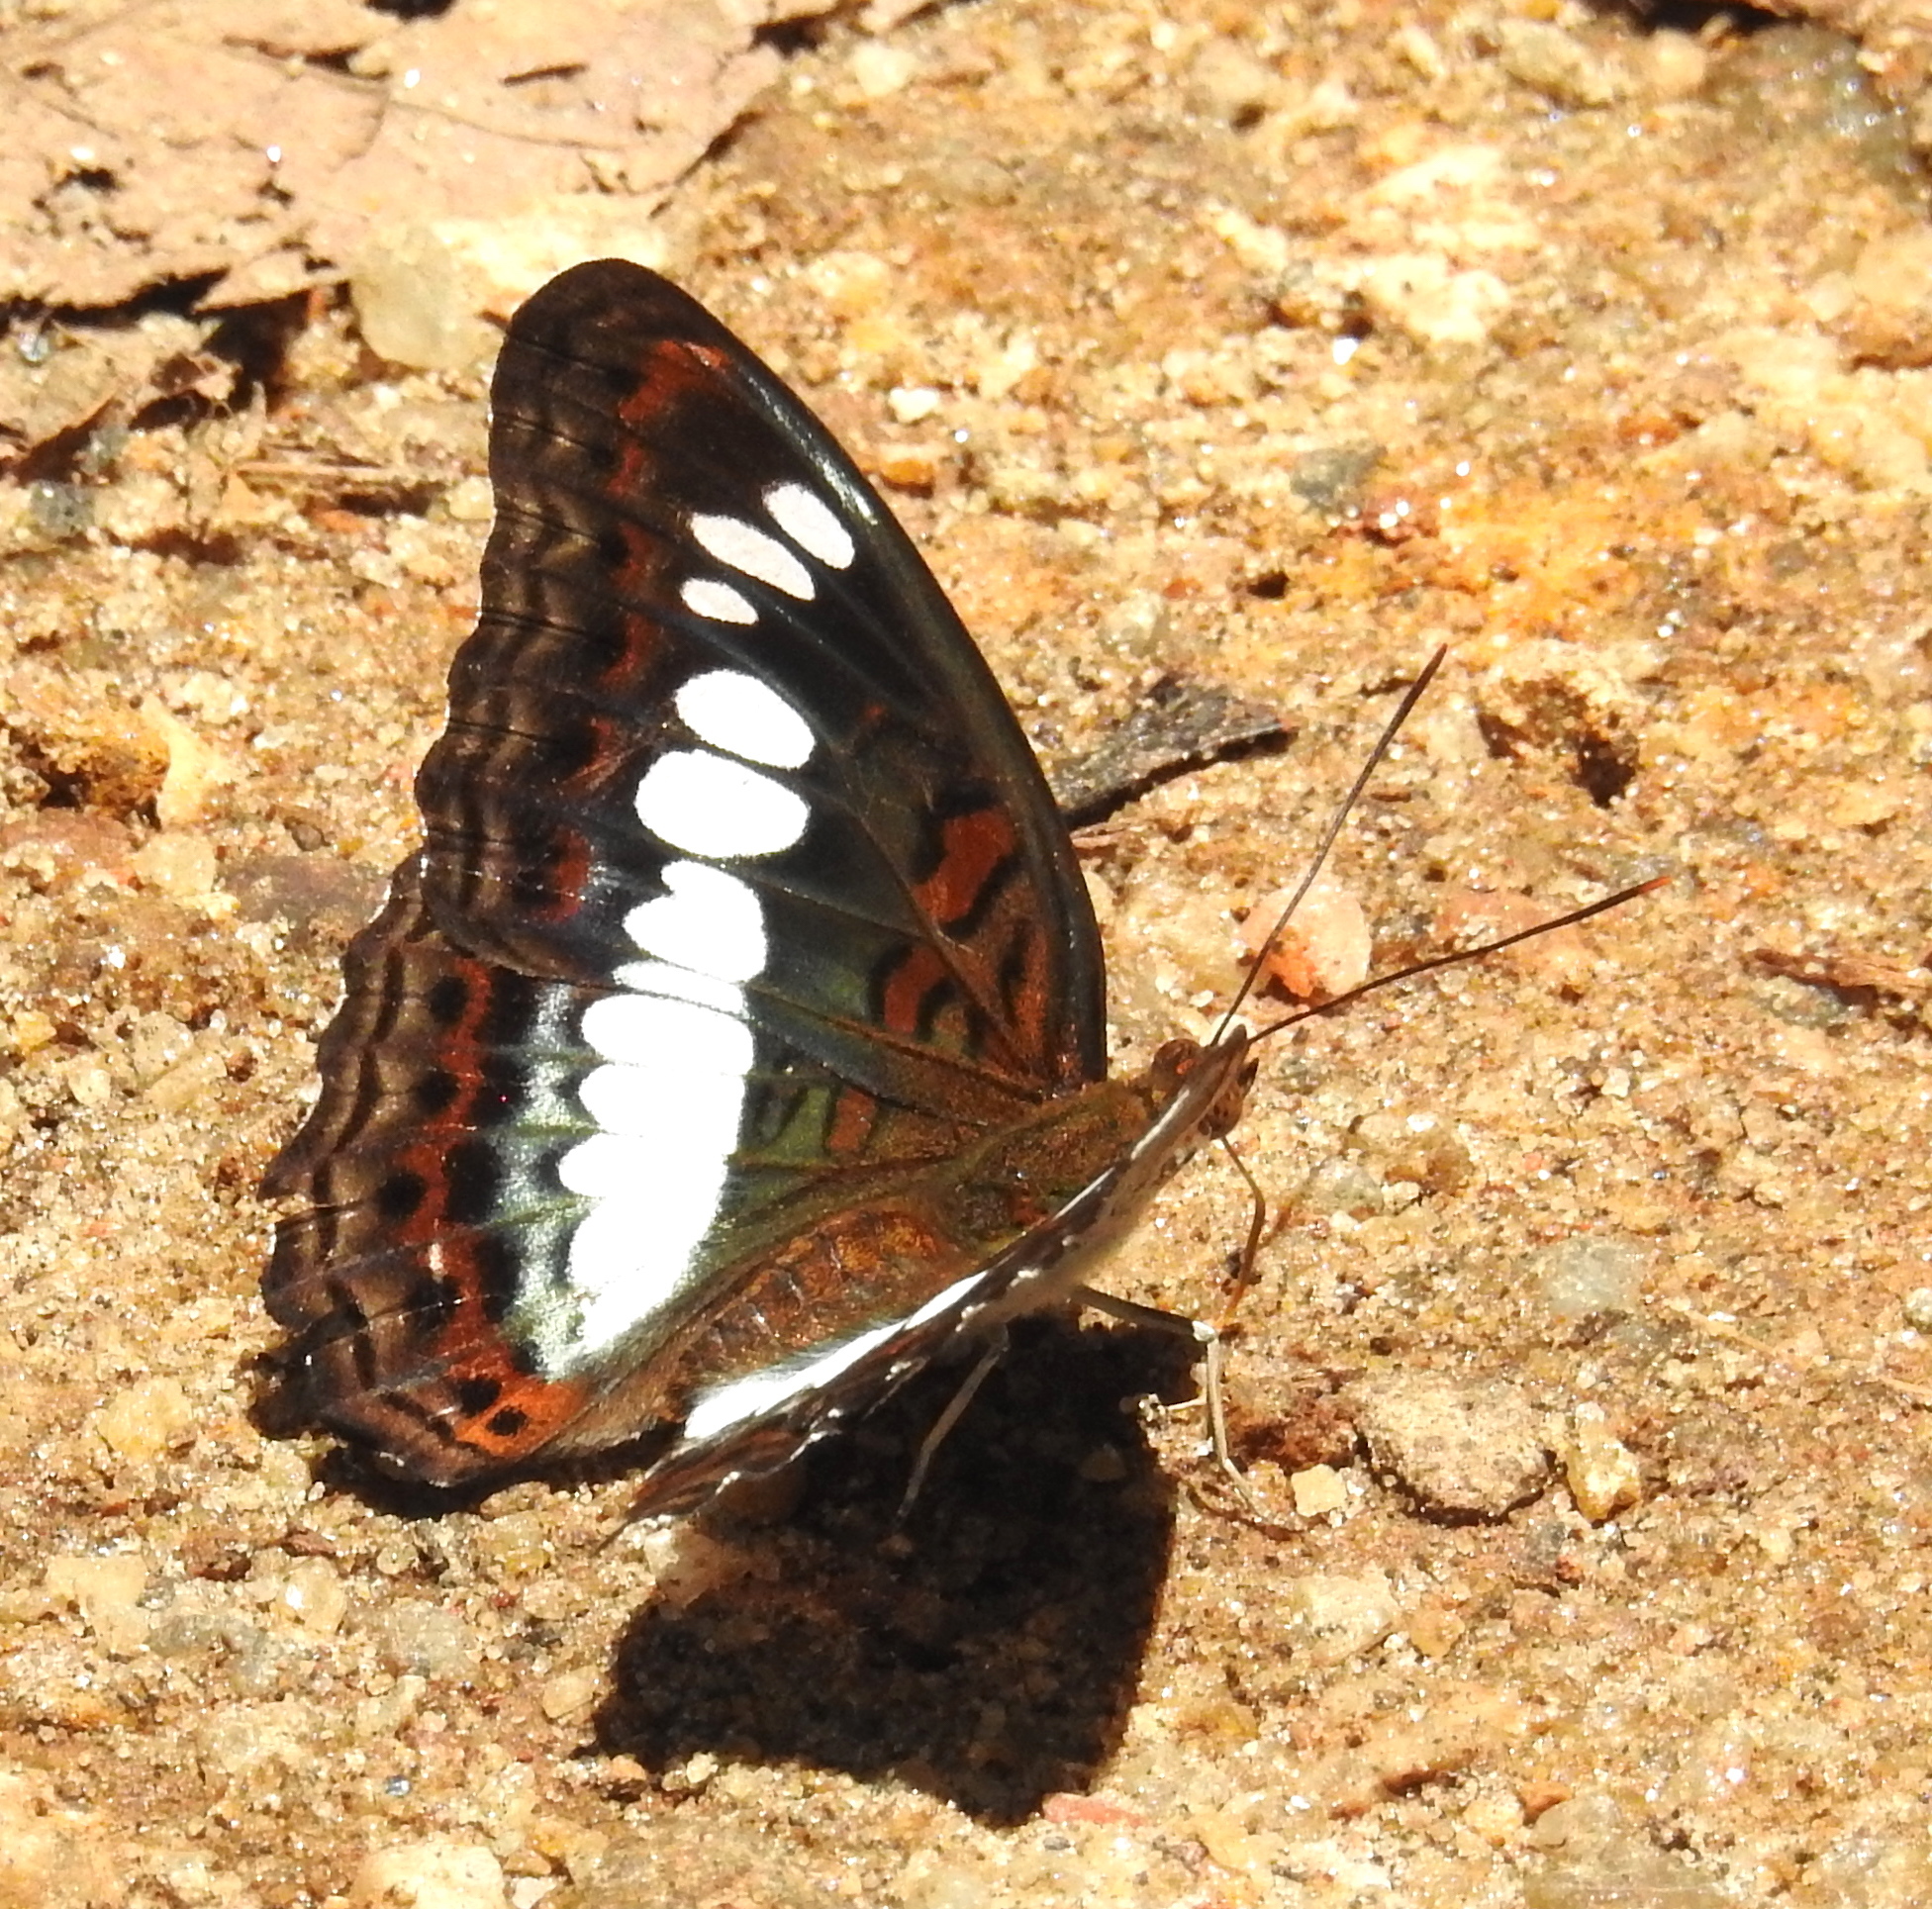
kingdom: Animalia
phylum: Arthropoda
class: Insecta
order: Lepidoptera
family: Nymphalidae
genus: Limenitis
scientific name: Limenitis Moduza procris
